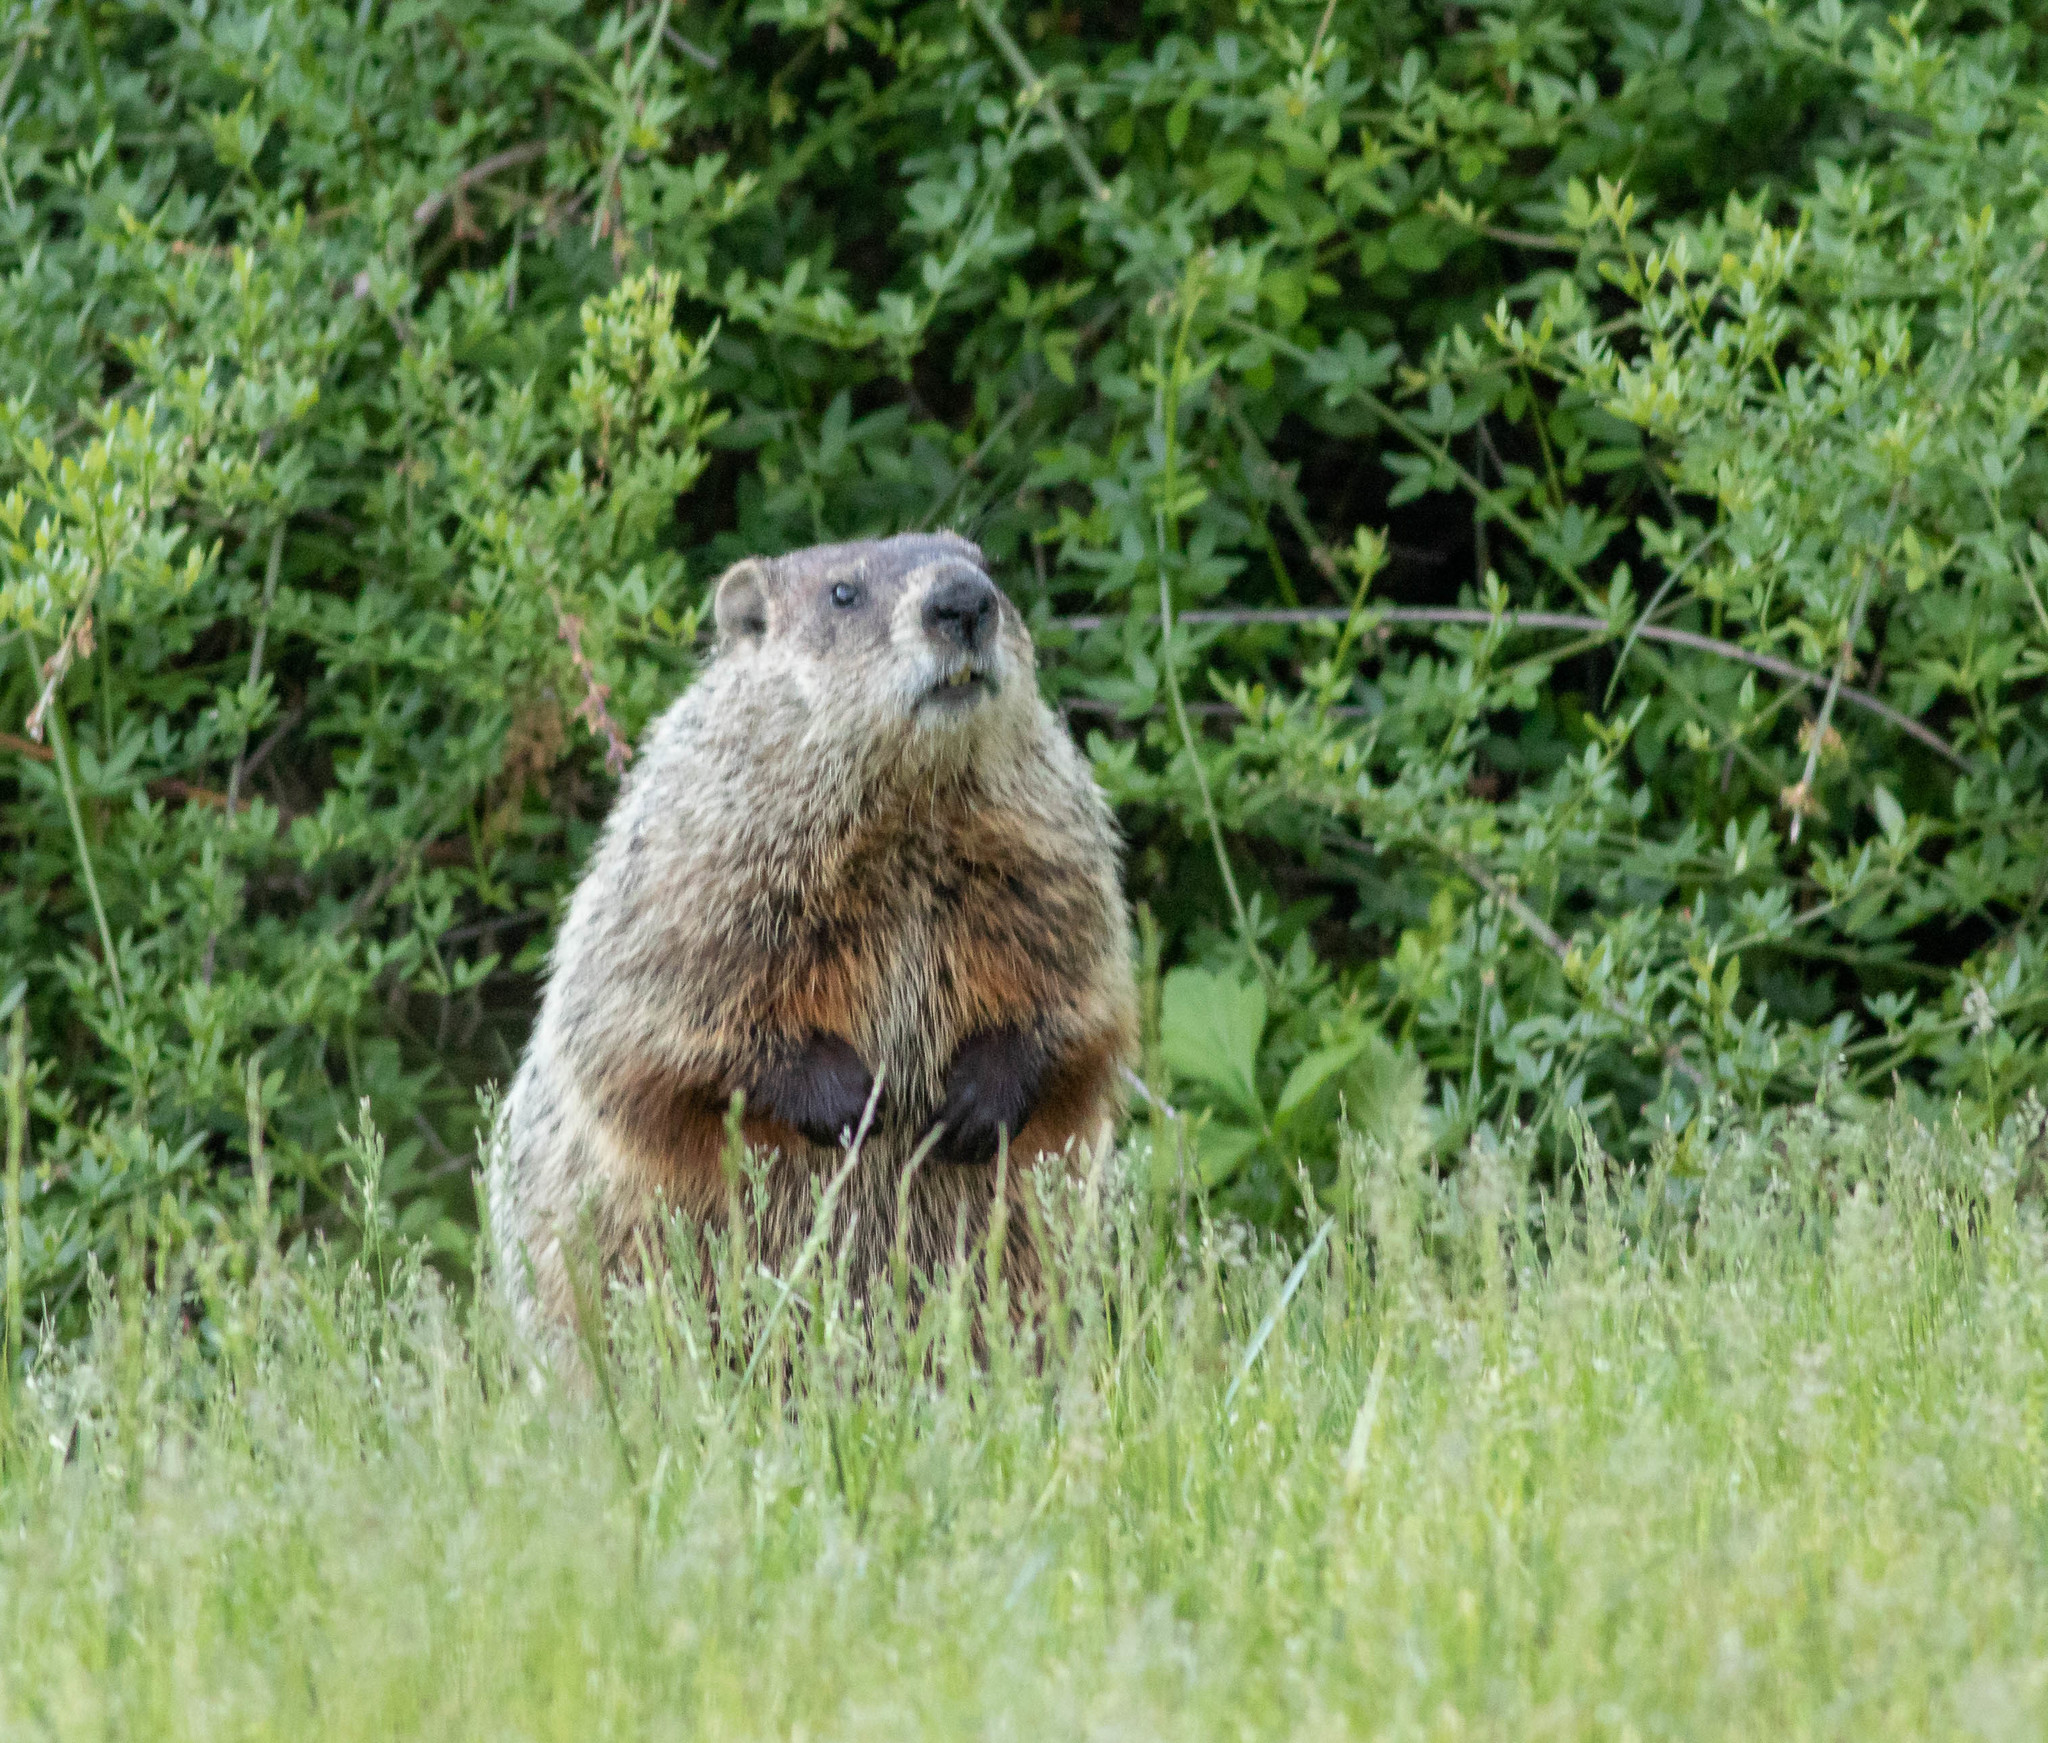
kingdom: Animalia
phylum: Chordata
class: Mammalia
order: Rodentia
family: Sciuridae
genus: Marmota
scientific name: Marmota monax
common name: Groundhog
